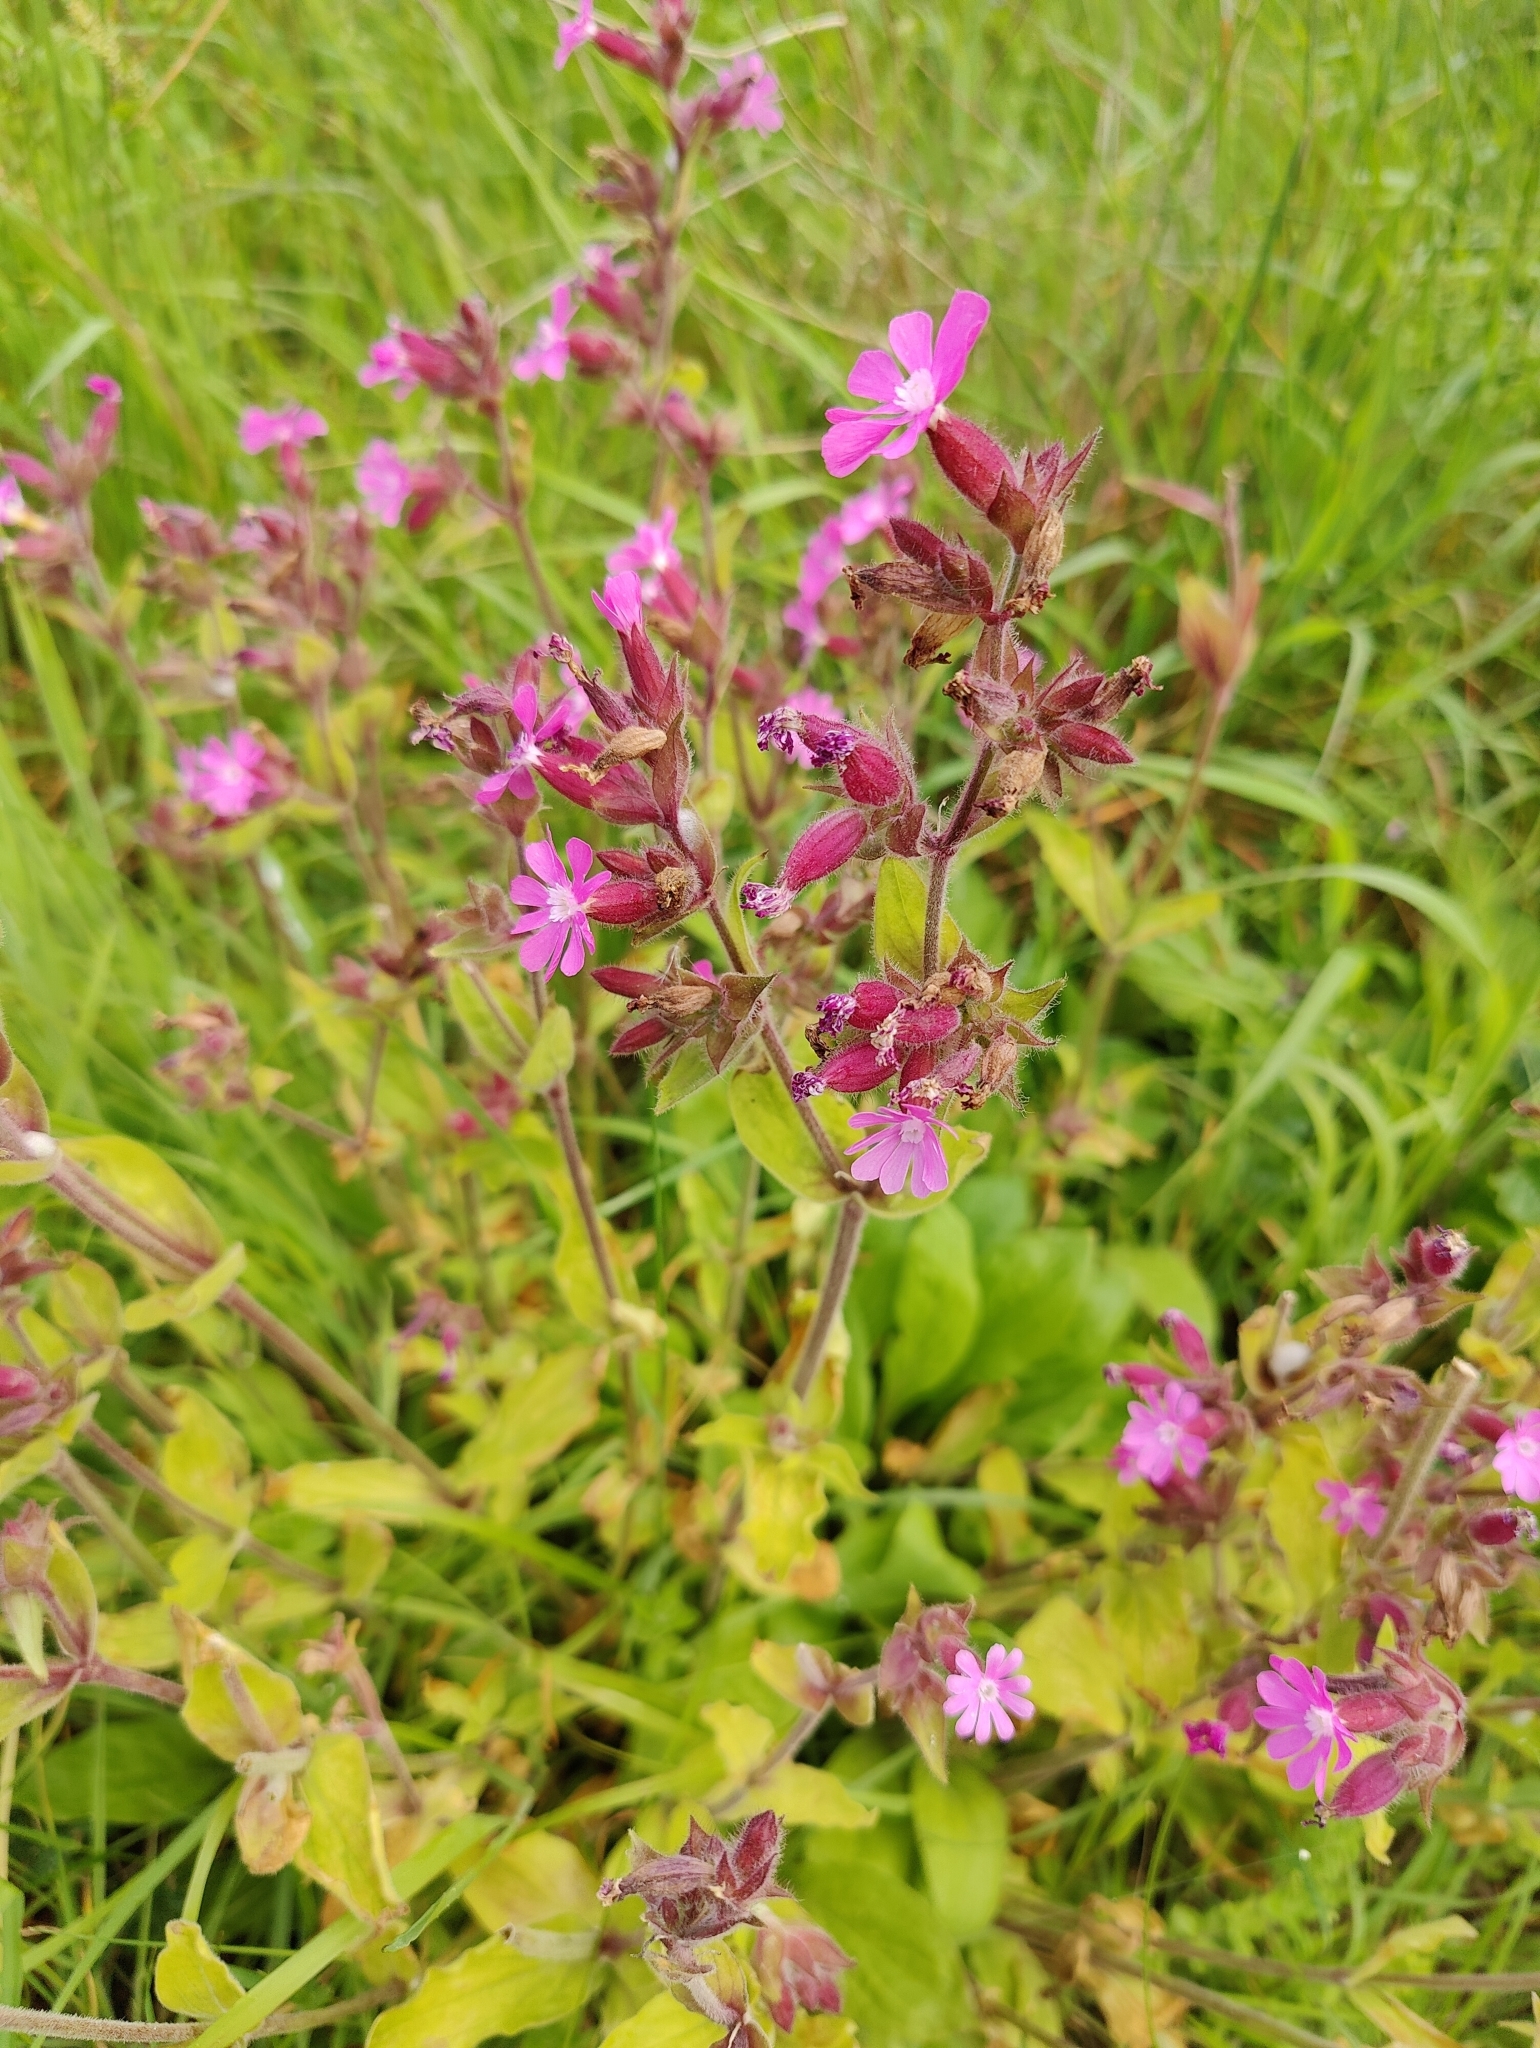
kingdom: Plantae
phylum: Tracheophyta
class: Magnoliopsida
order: Caryophyllales
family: Caryophyllaceae
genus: Silene
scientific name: Silene dioica
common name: Red campion
